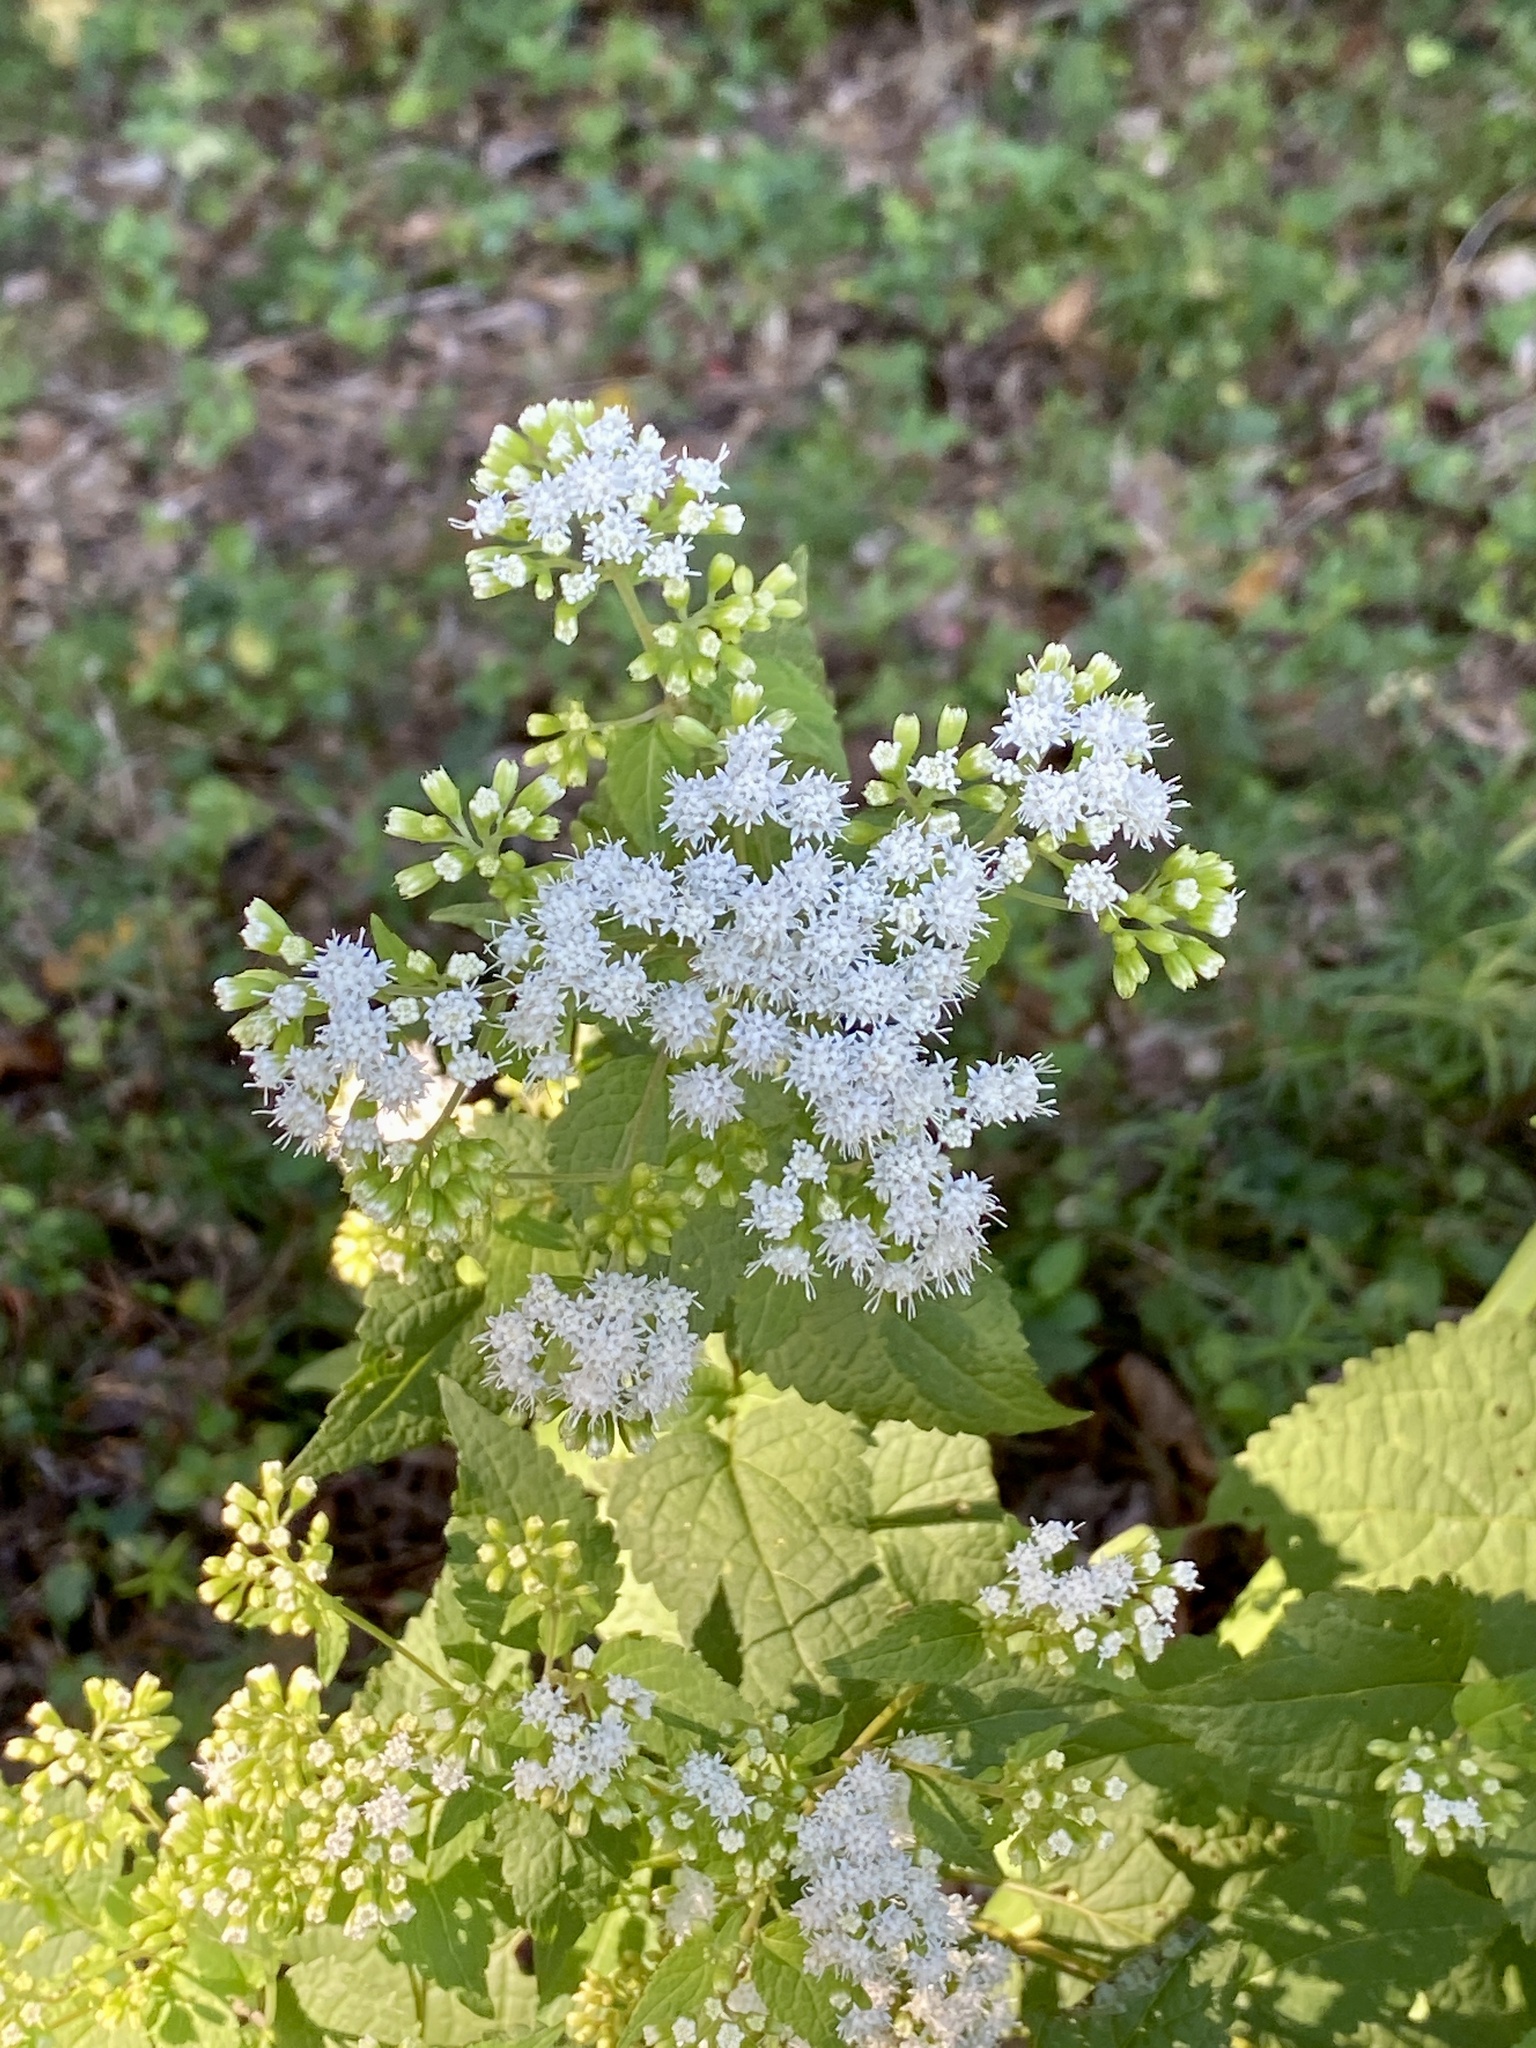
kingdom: Plantae
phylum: Tracheophyta
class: Magnoliopsida
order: Asterales
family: Asteraceae
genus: Ageratina
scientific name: Ageratina altissima
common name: White snakeroot
